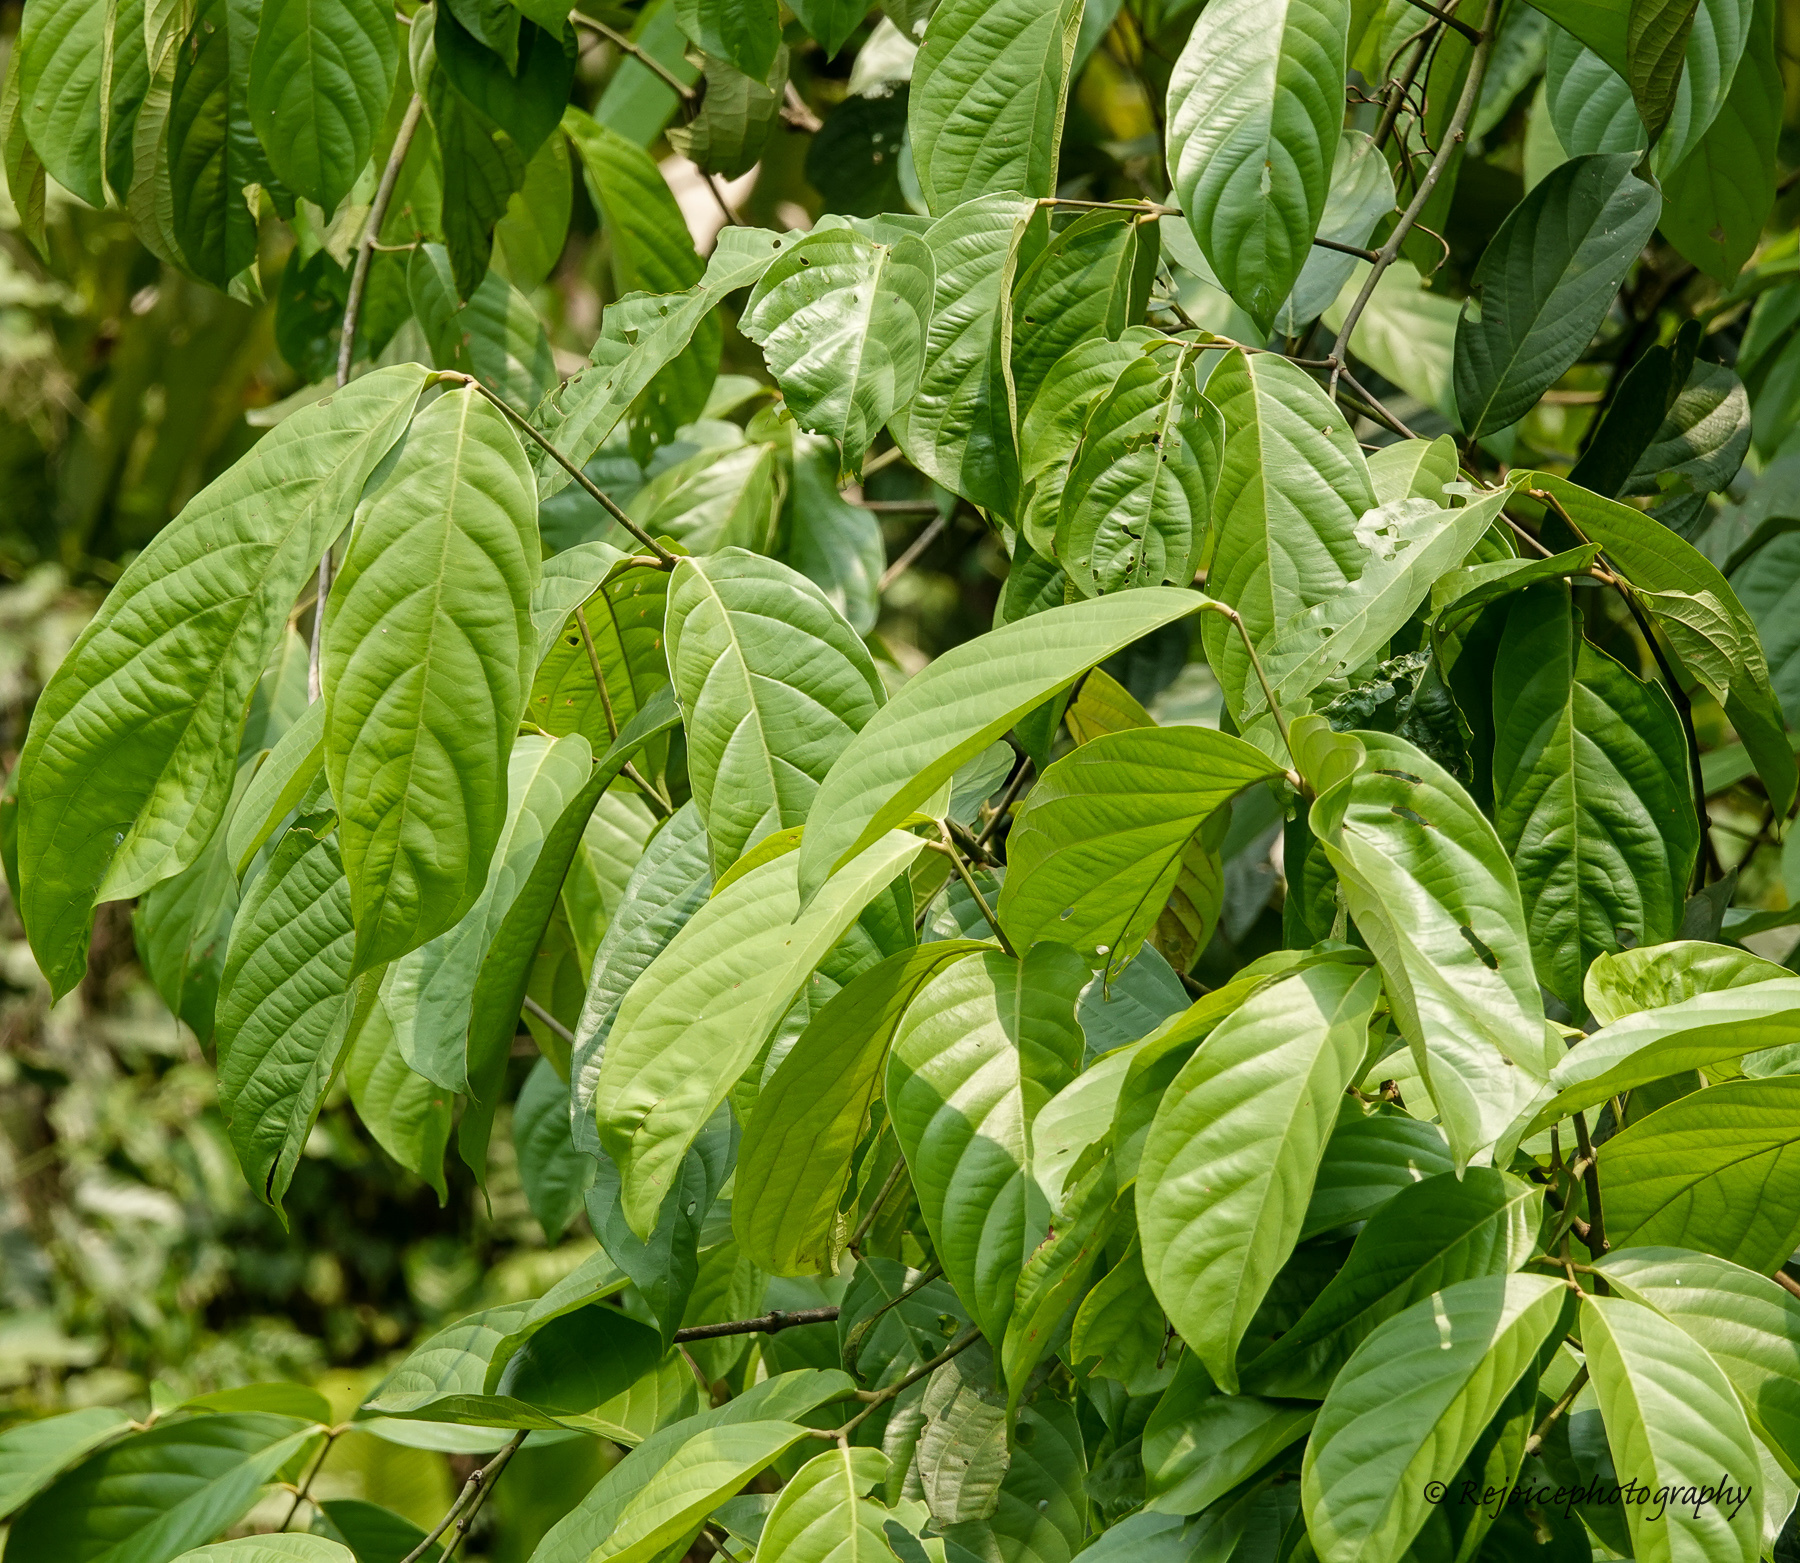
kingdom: Plantae
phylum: Tracheophyta
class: Magnoliopsida
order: Malpighiales
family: Malpighiaceae
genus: Hiptage
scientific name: Hiptage benghalensis
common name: Hiptage
